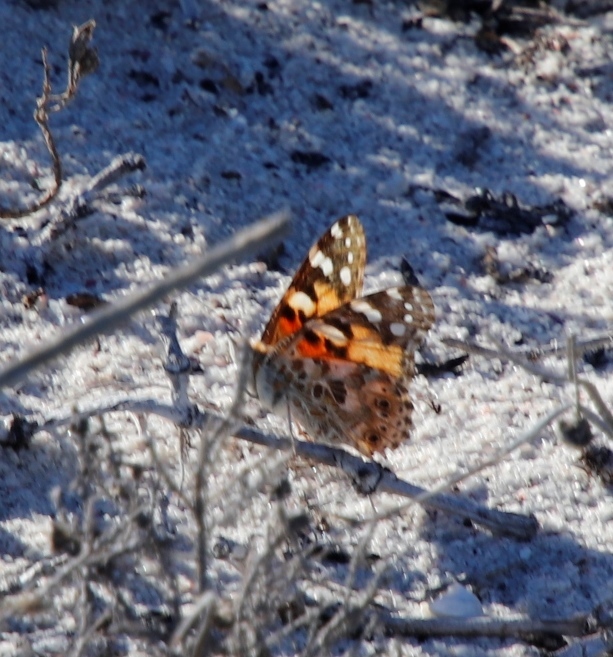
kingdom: Animalia
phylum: Arthropoda
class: Insecta
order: Lepidoptera
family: Nymphalidae
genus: Vanessa
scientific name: Vanessa cardui
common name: Painted lady
